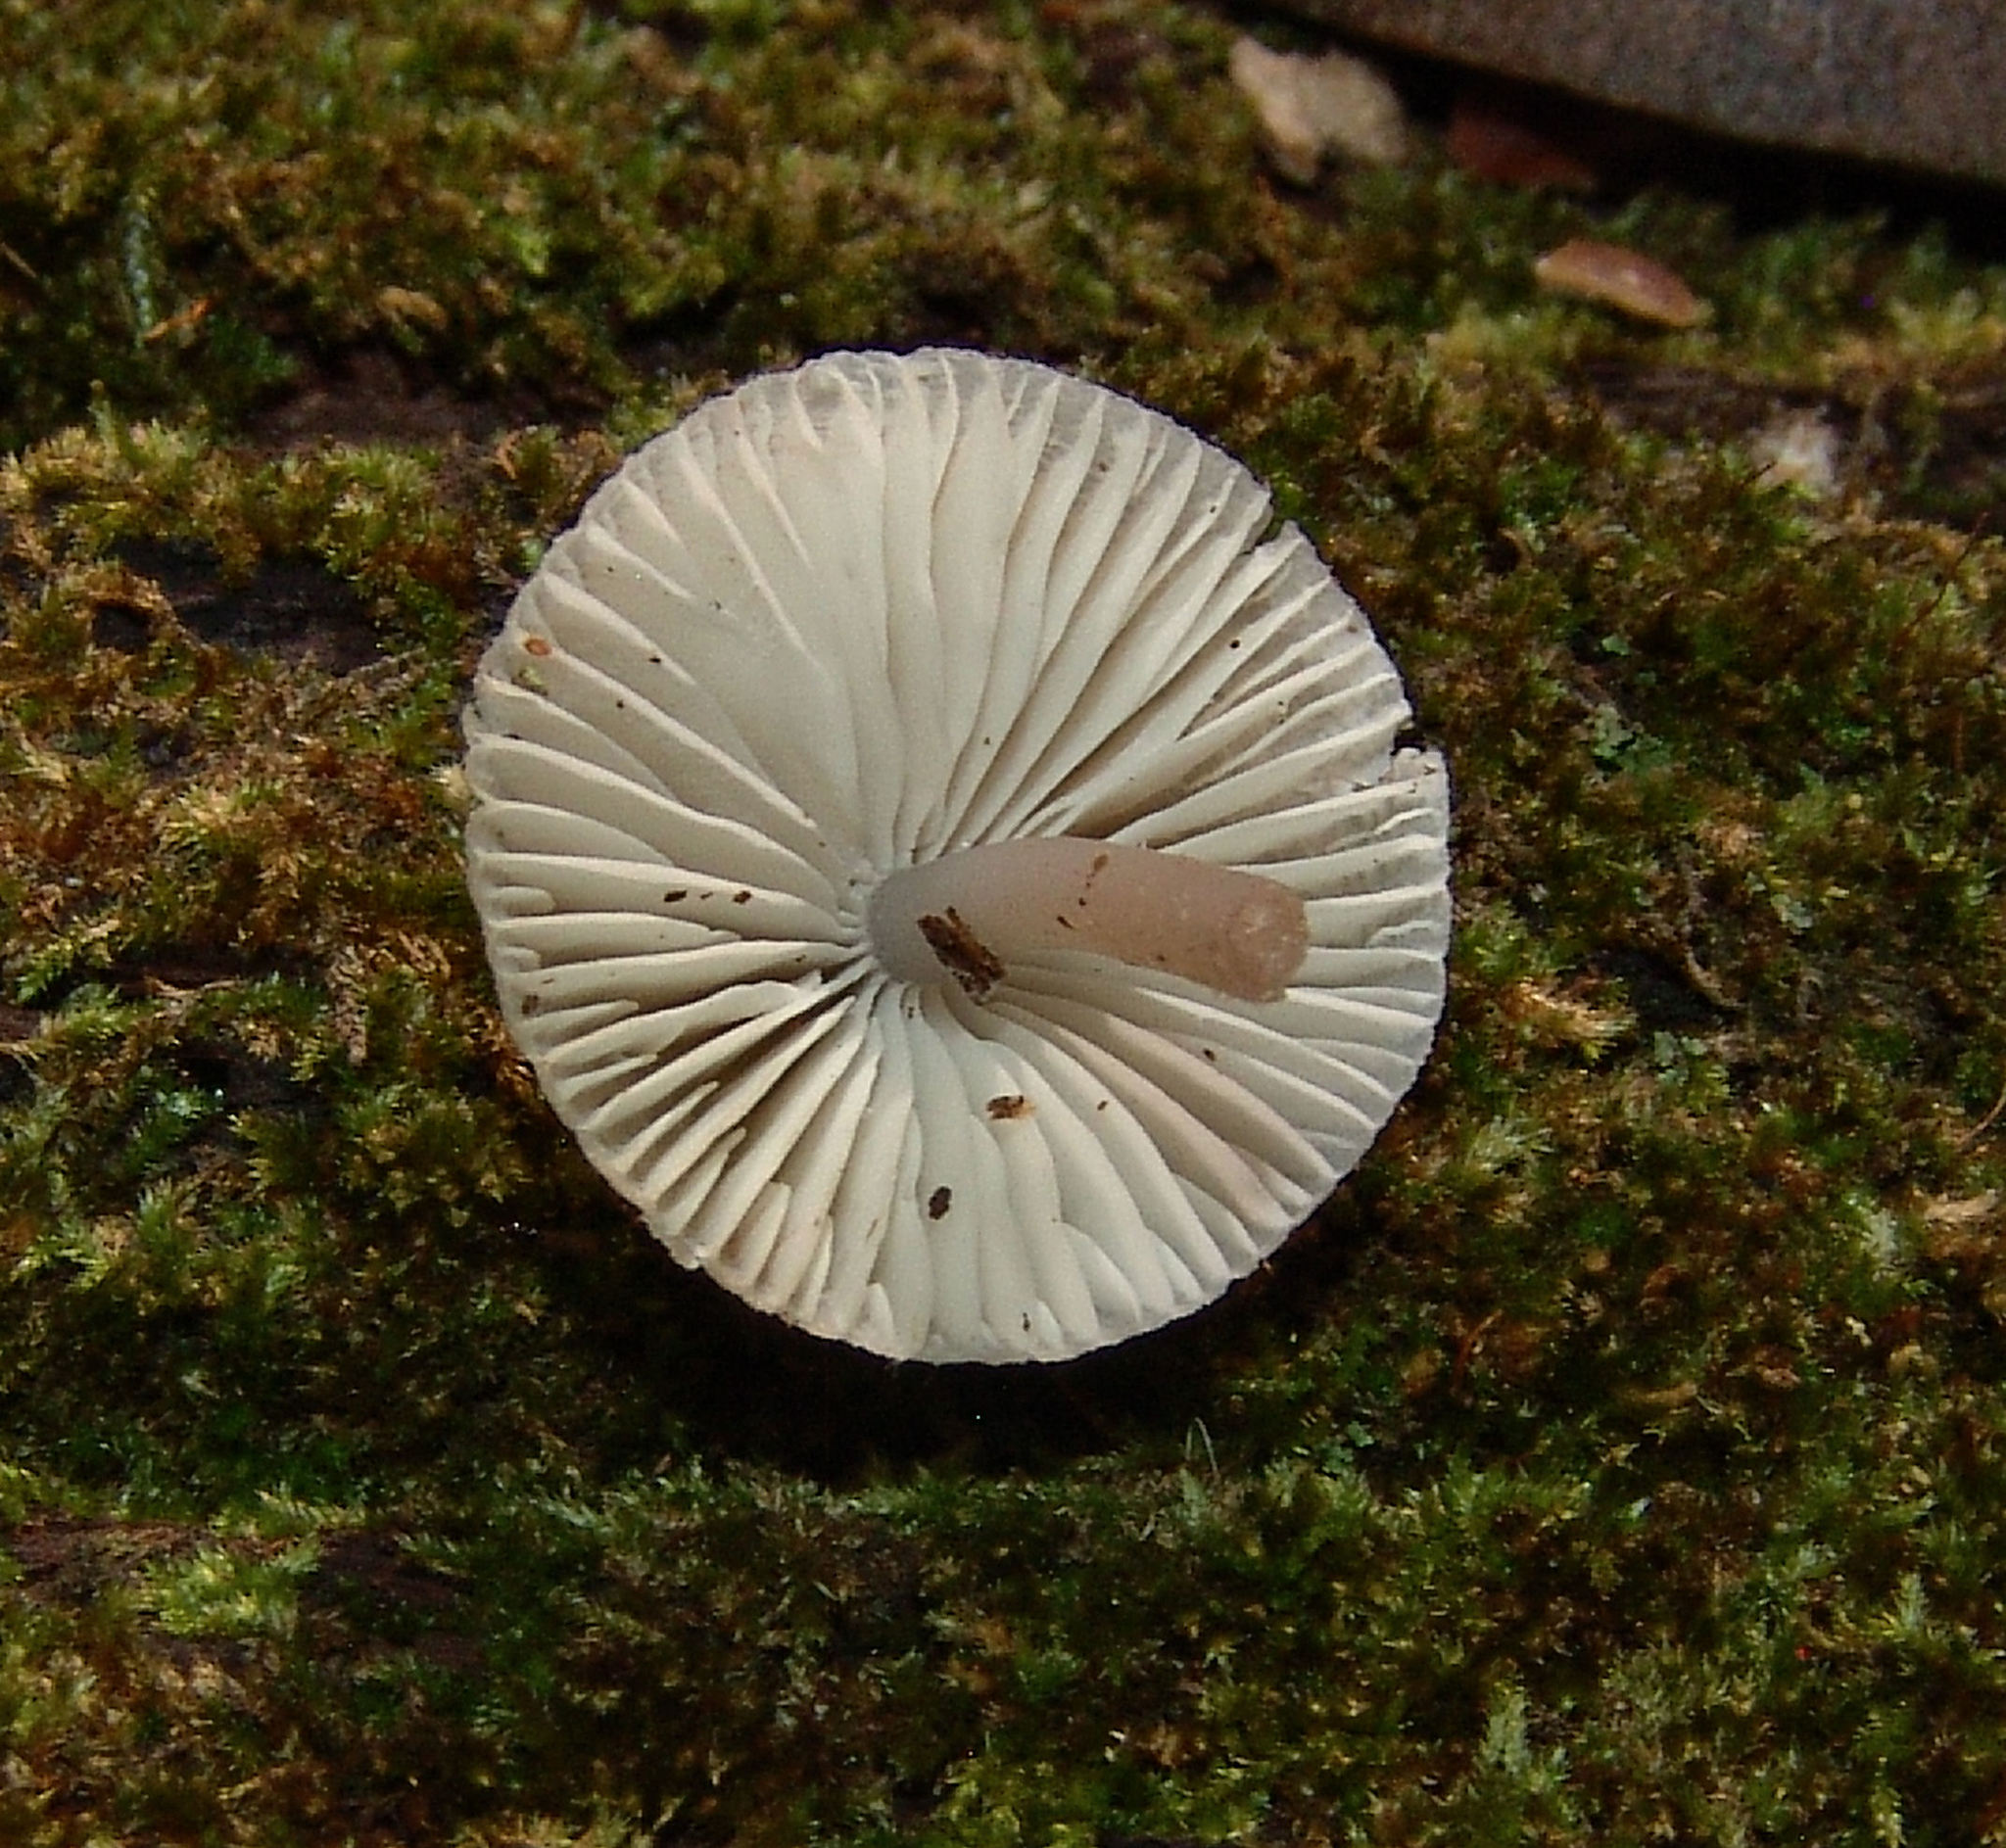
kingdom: Fungi
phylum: Basidiomycota
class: Agaricomycetes
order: Agaricales
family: Mycenaceae
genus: Mycena
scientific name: Mycena galericulata
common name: Bonnet mycena
